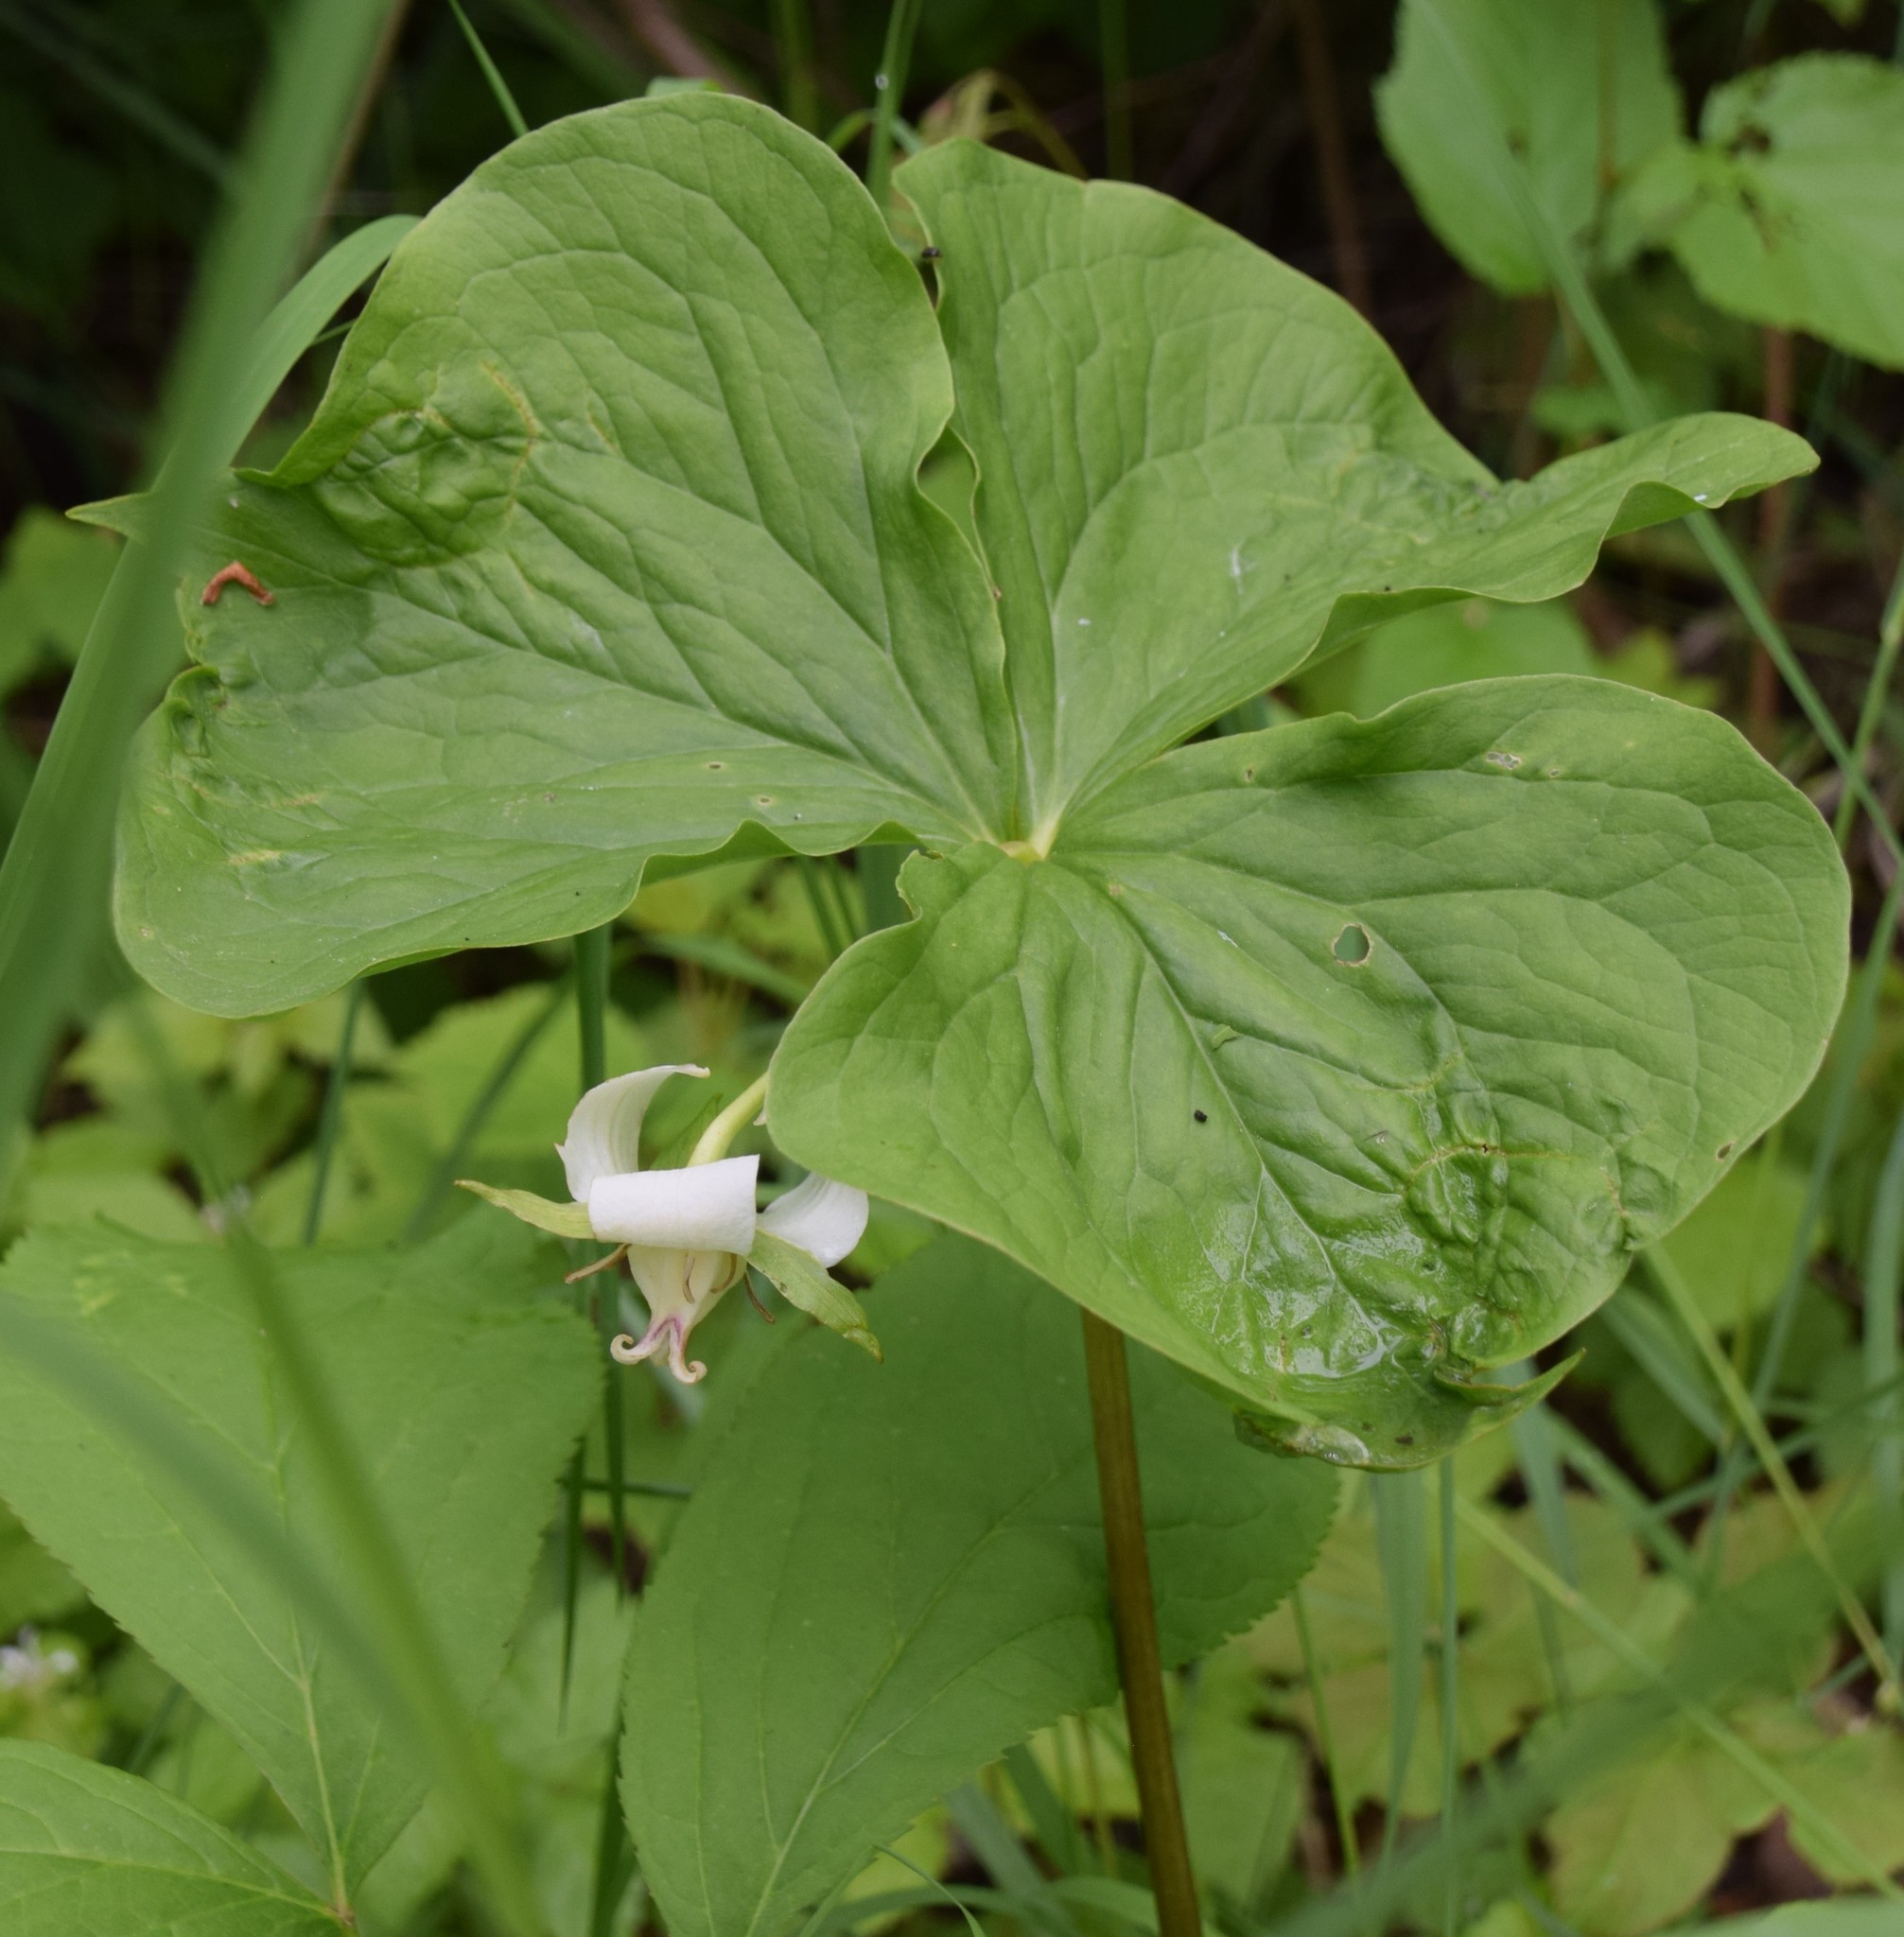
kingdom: Plantae
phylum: Tracheophyta
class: Liliopsida
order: Liliales
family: Melanthiaceae
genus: Trillium
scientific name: Trillium cernuum
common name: Nodding trillium
